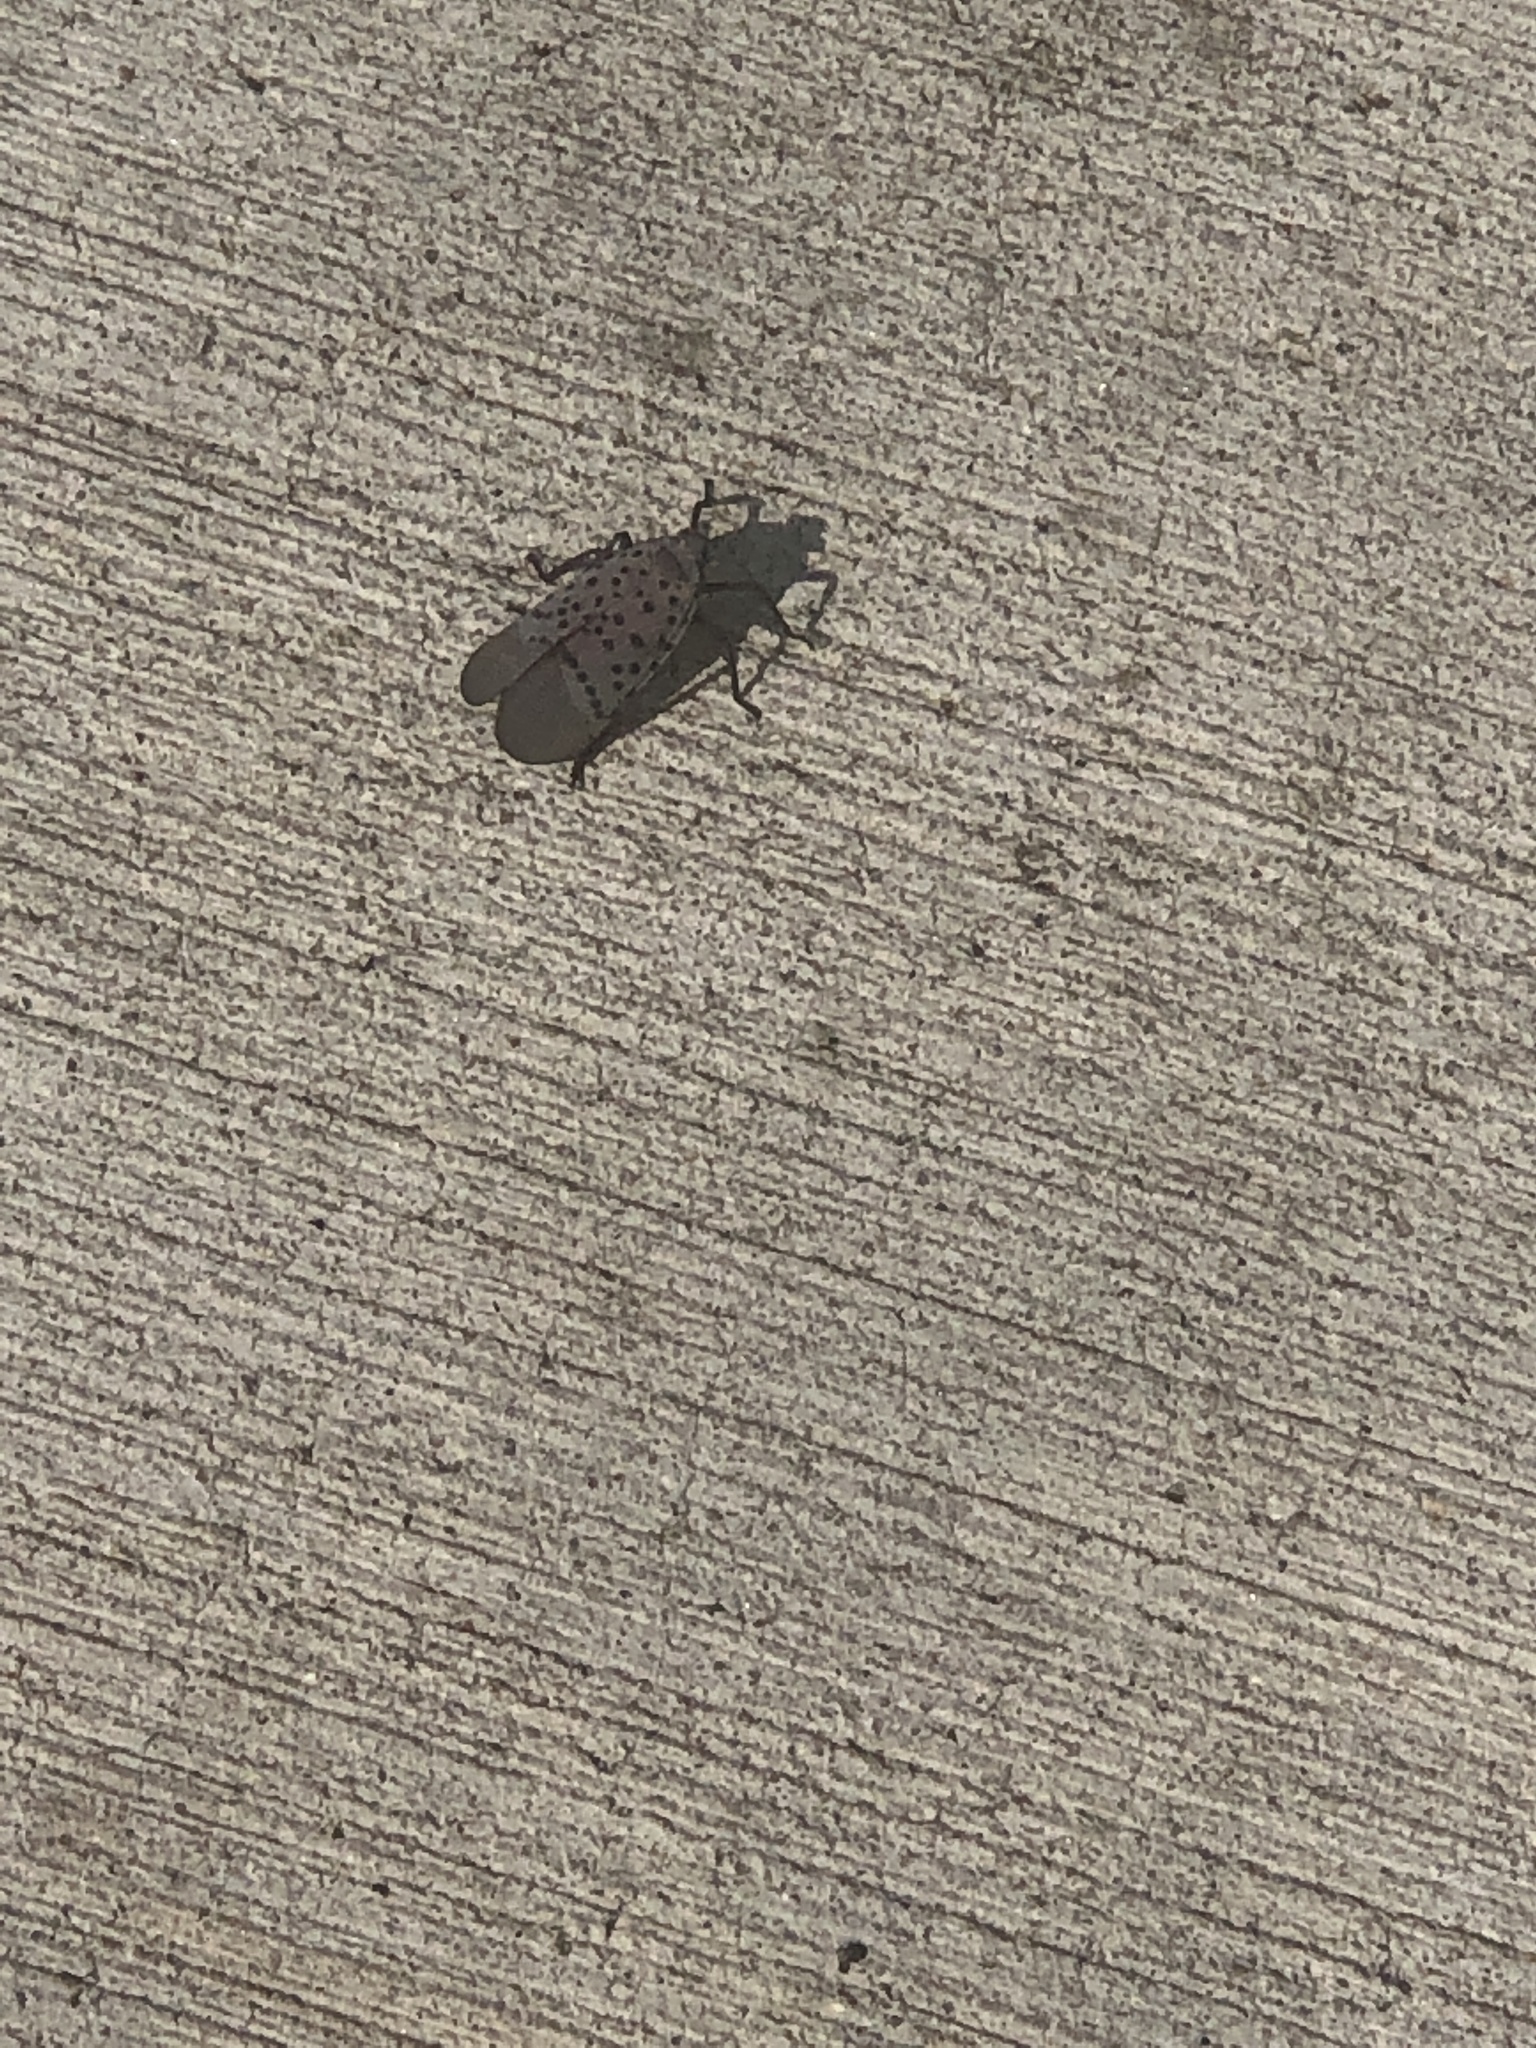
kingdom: Animalia
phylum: Arthropoda
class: Insecta
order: Hemiptera
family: Fulgoridae
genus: Lycorma
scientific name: Lycorma delicatula
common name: Spotted lanternfly
